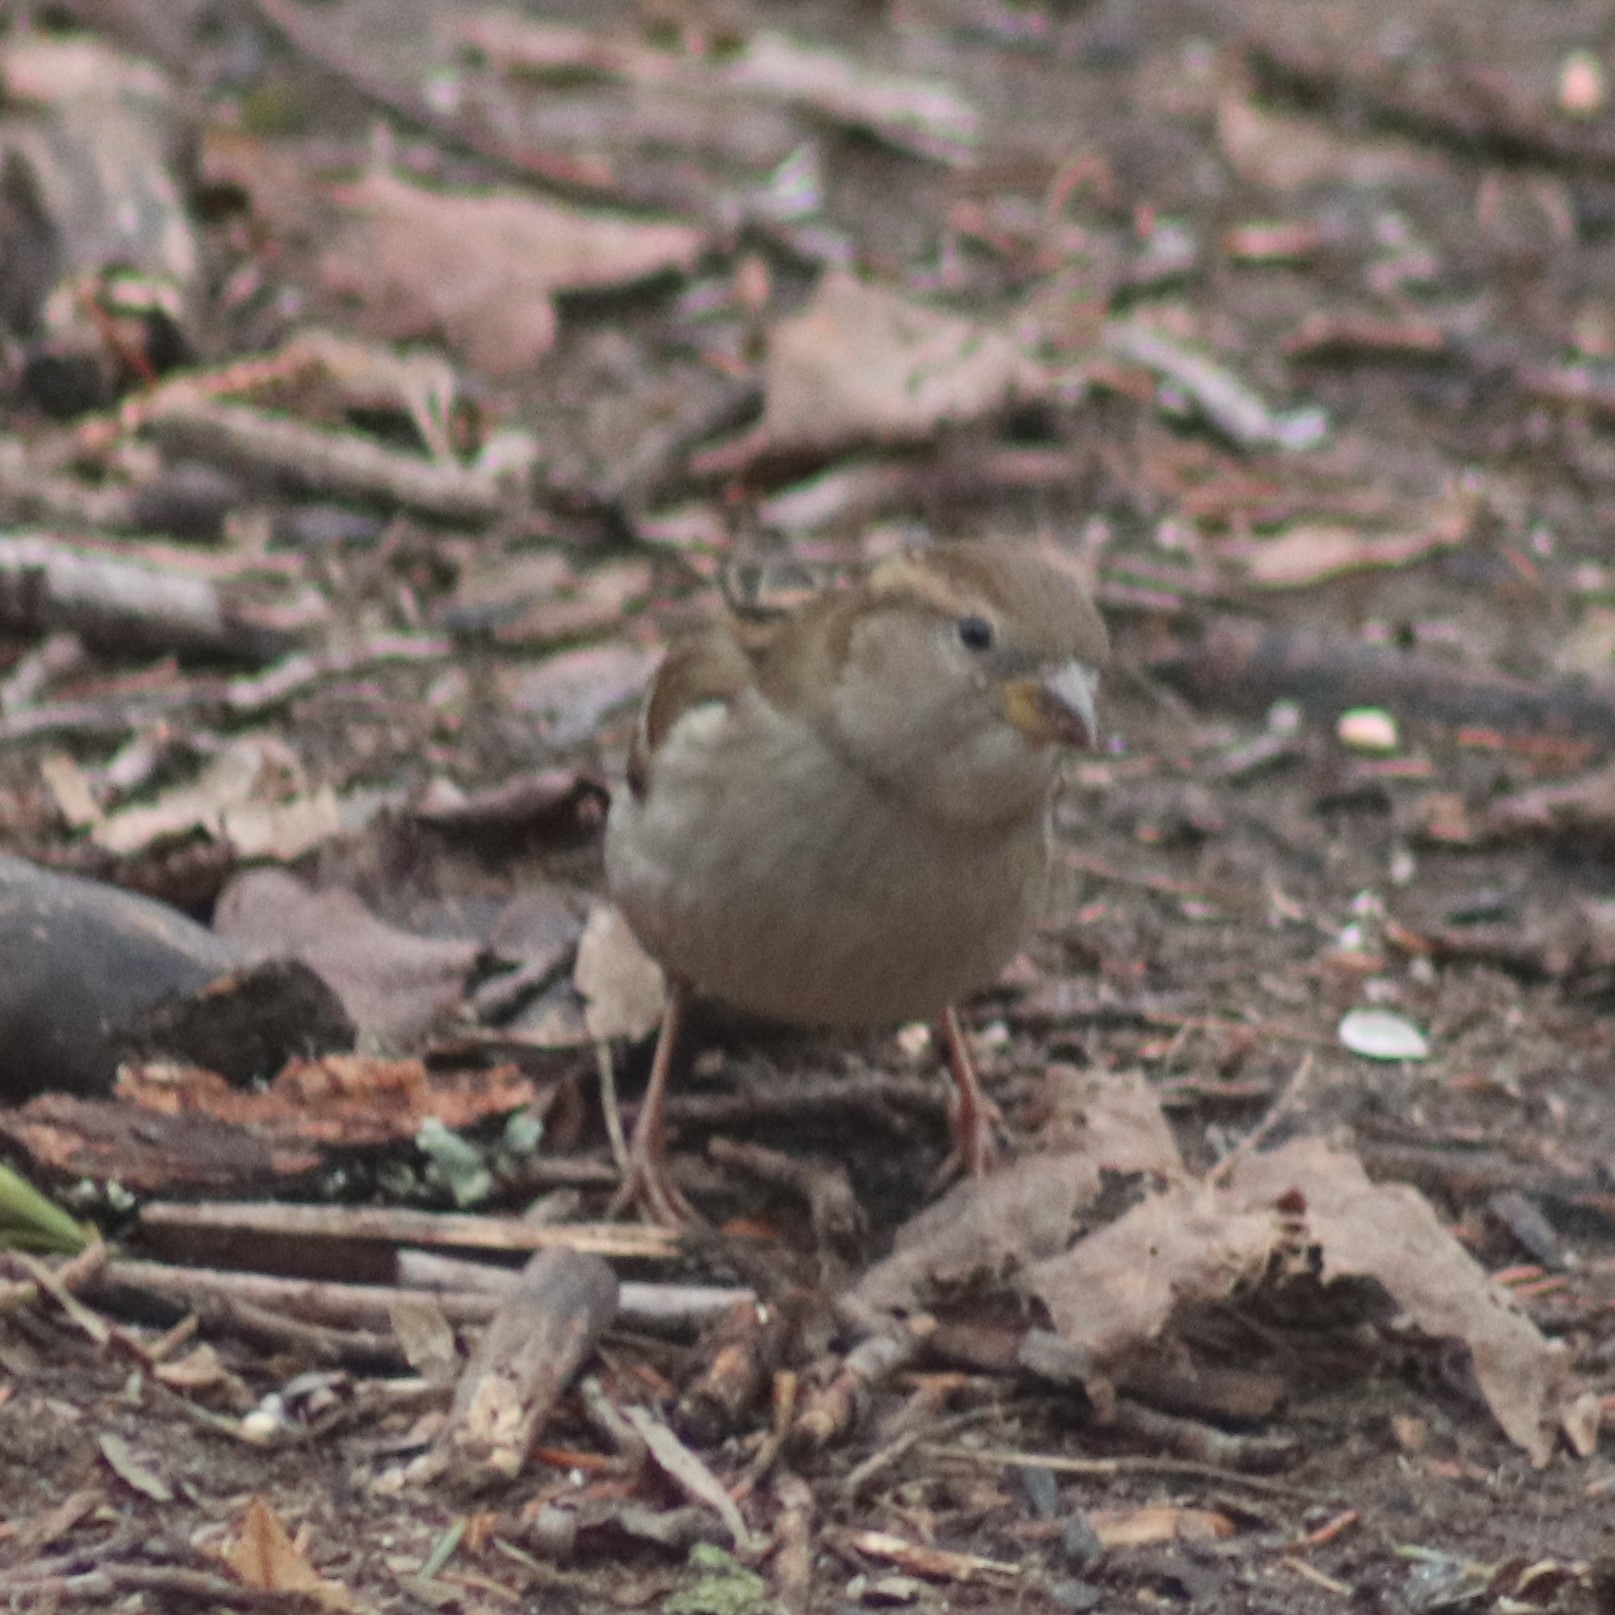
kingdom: Animalia
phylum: Chordata
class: Aves
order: Passeriformes
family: Passeridae
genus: Passer
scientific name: Passer domesticus
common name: House sparrow
